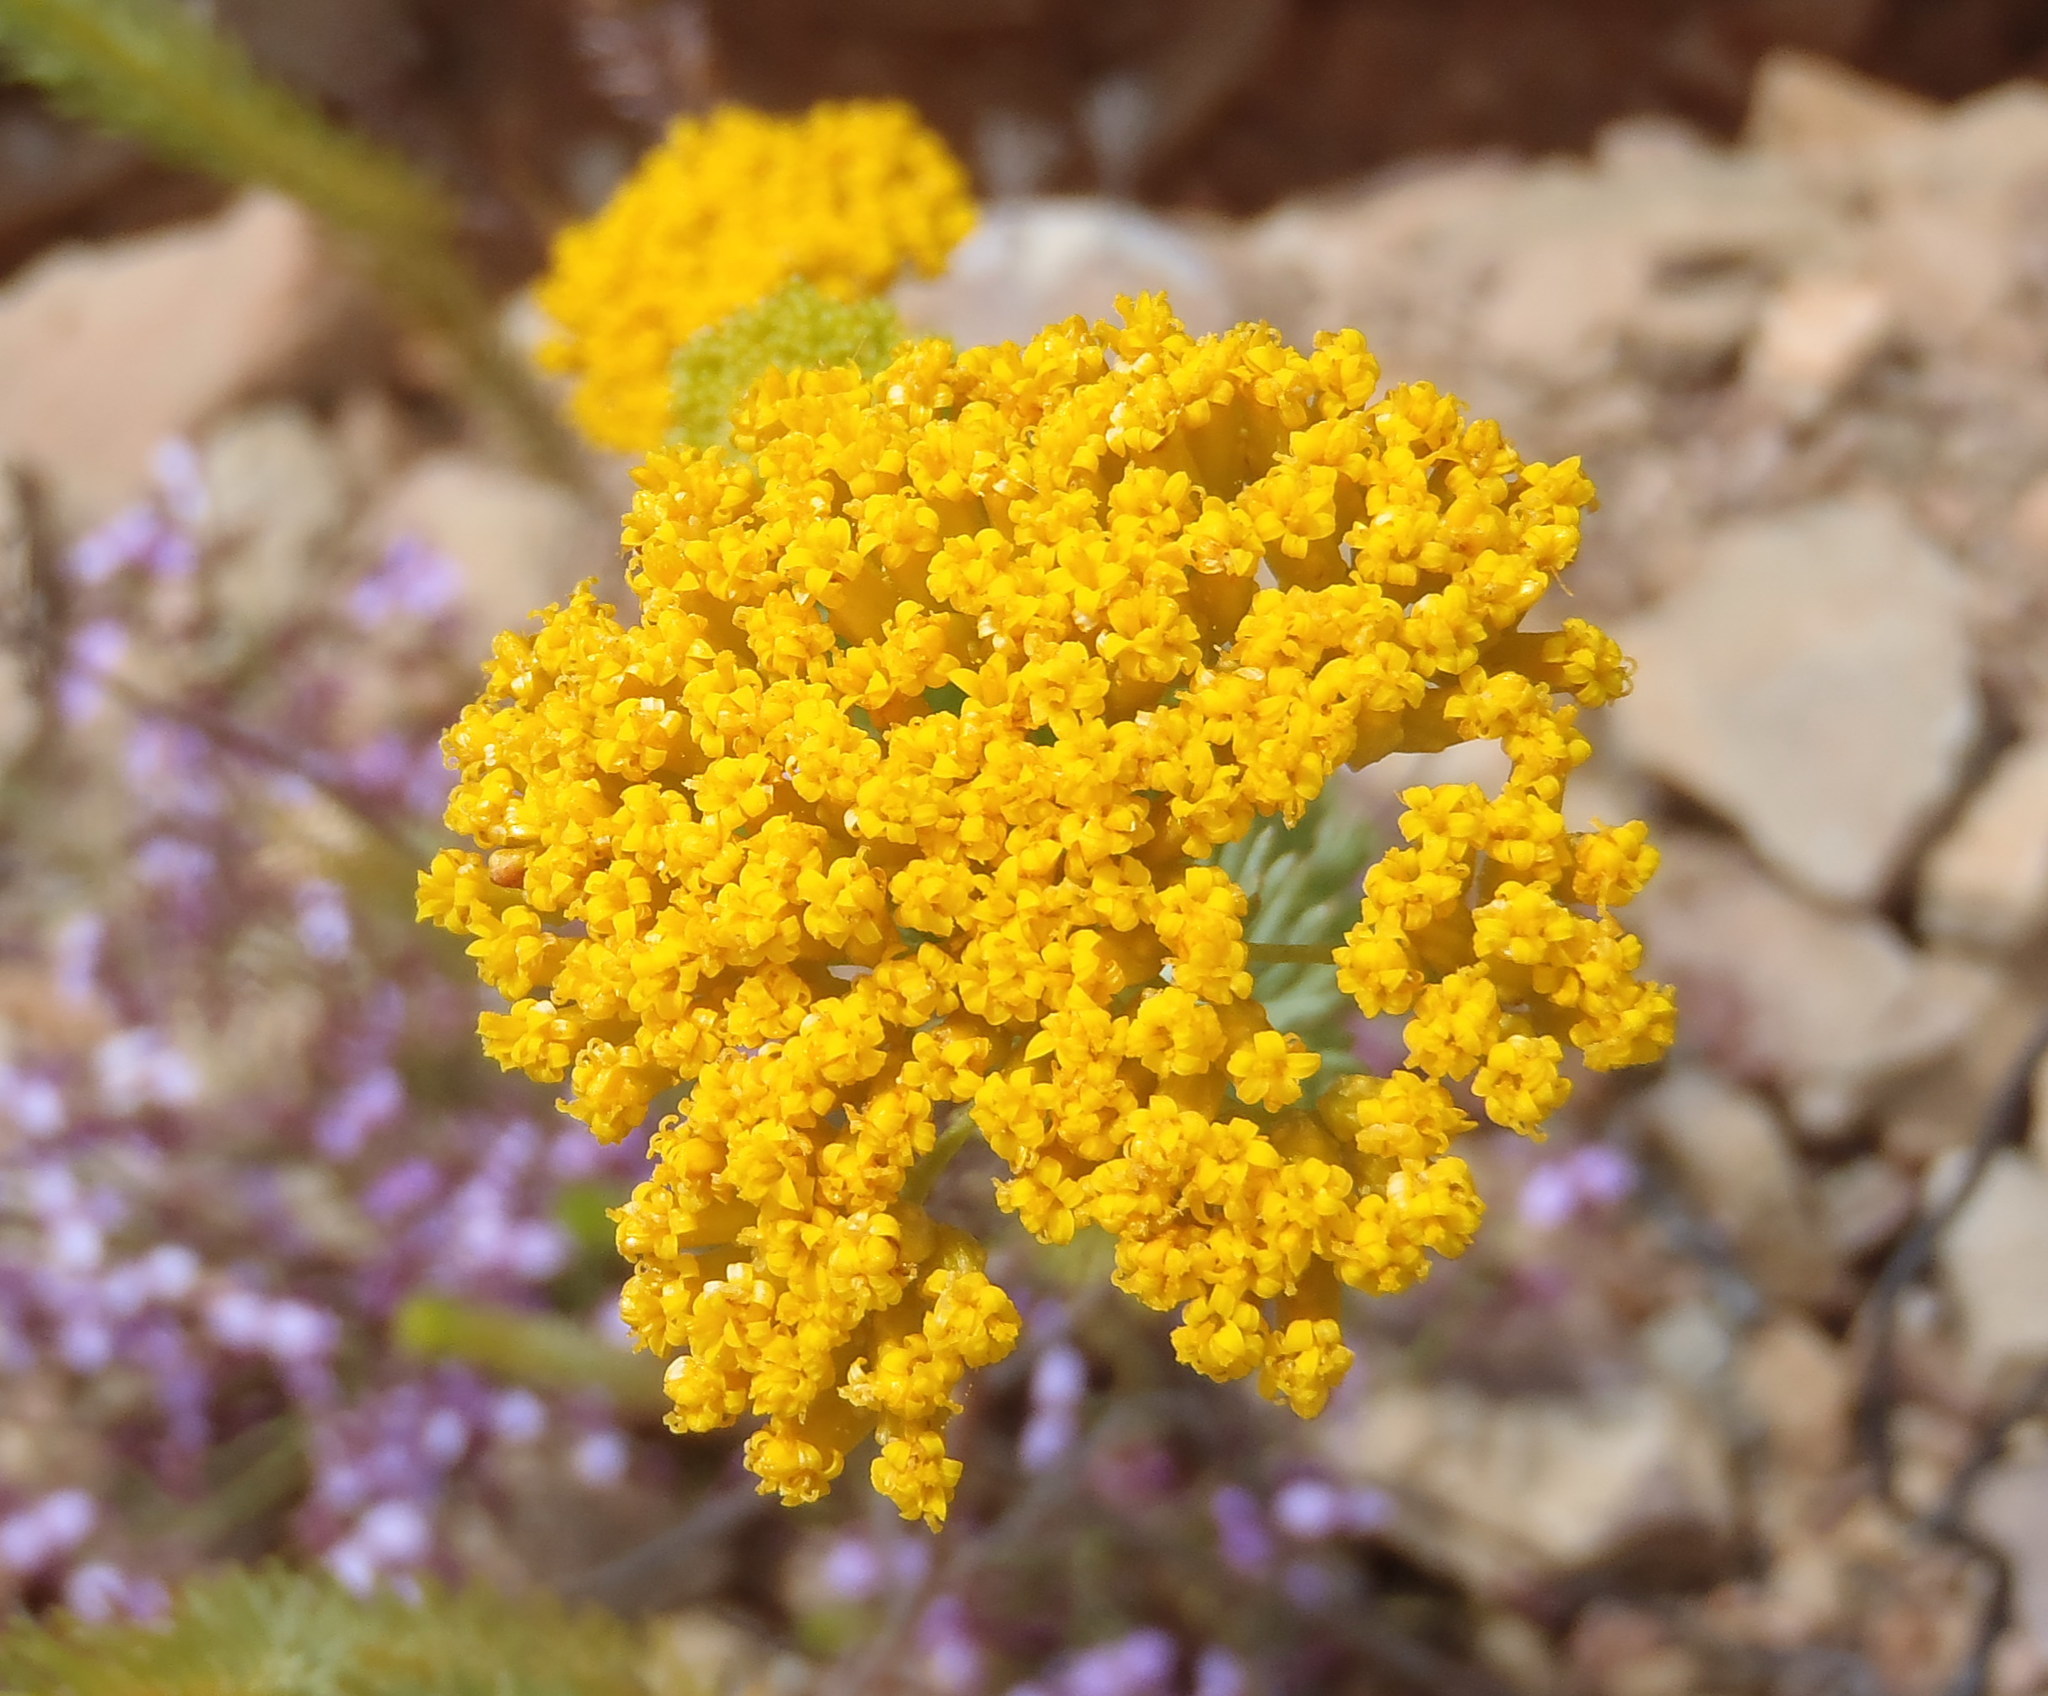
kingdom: Plantae
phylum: Tracheophyta
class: Magnoliopsida
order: Asterales
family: Asteraceae
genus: Athanasia
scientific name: Athanasia vestita
